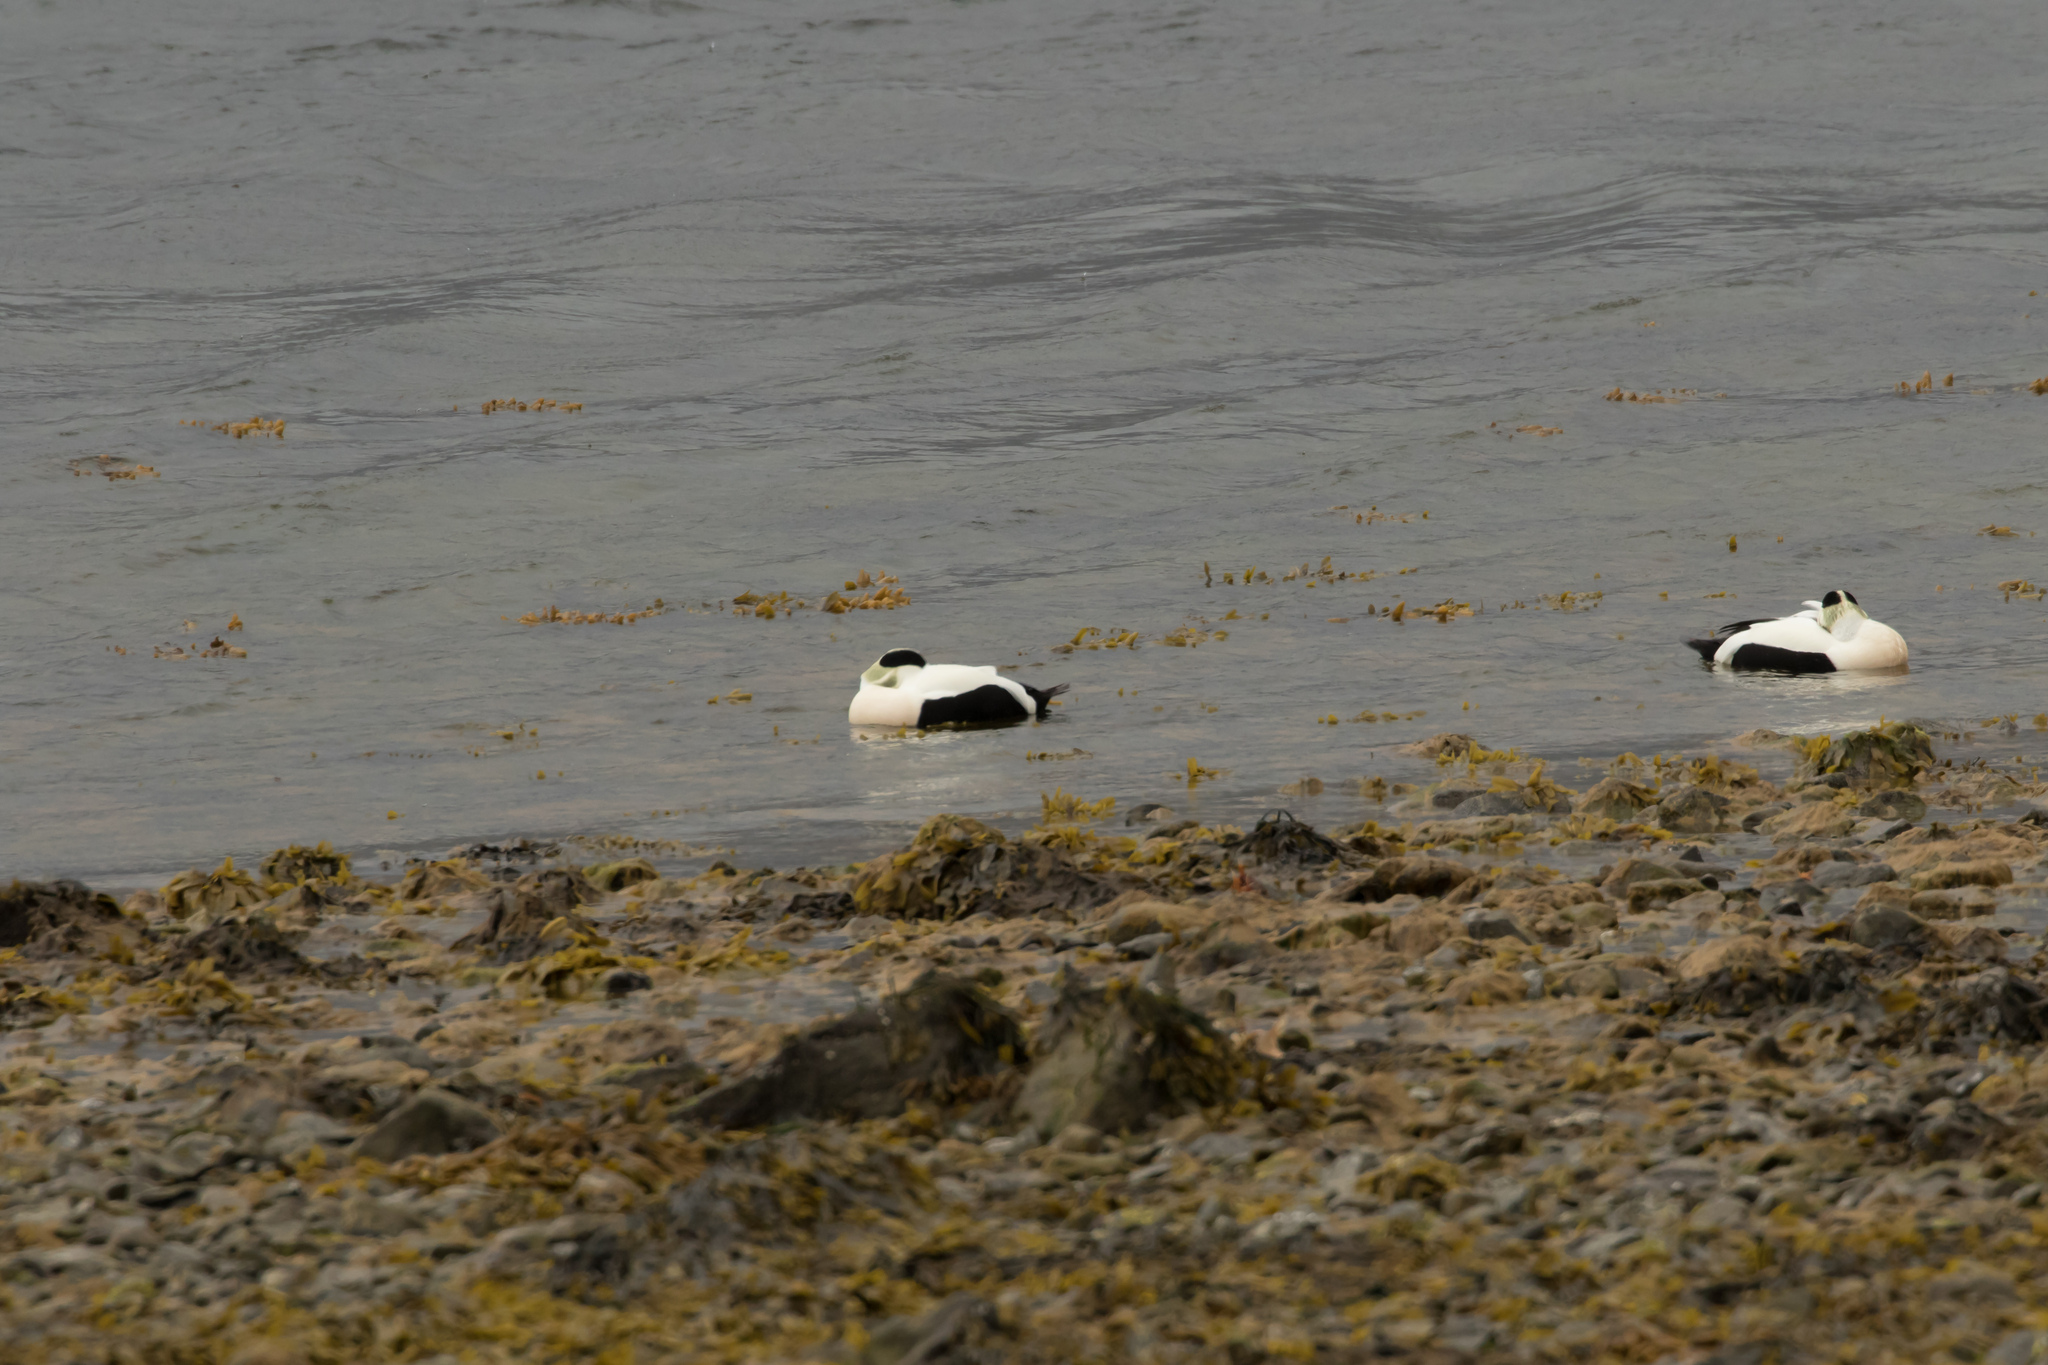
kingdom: Animalia
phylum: Chordata
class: Aves
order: Anseriformes
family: Anatidae
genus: Somateria
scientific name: Somateria mollissima
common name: Common eider
